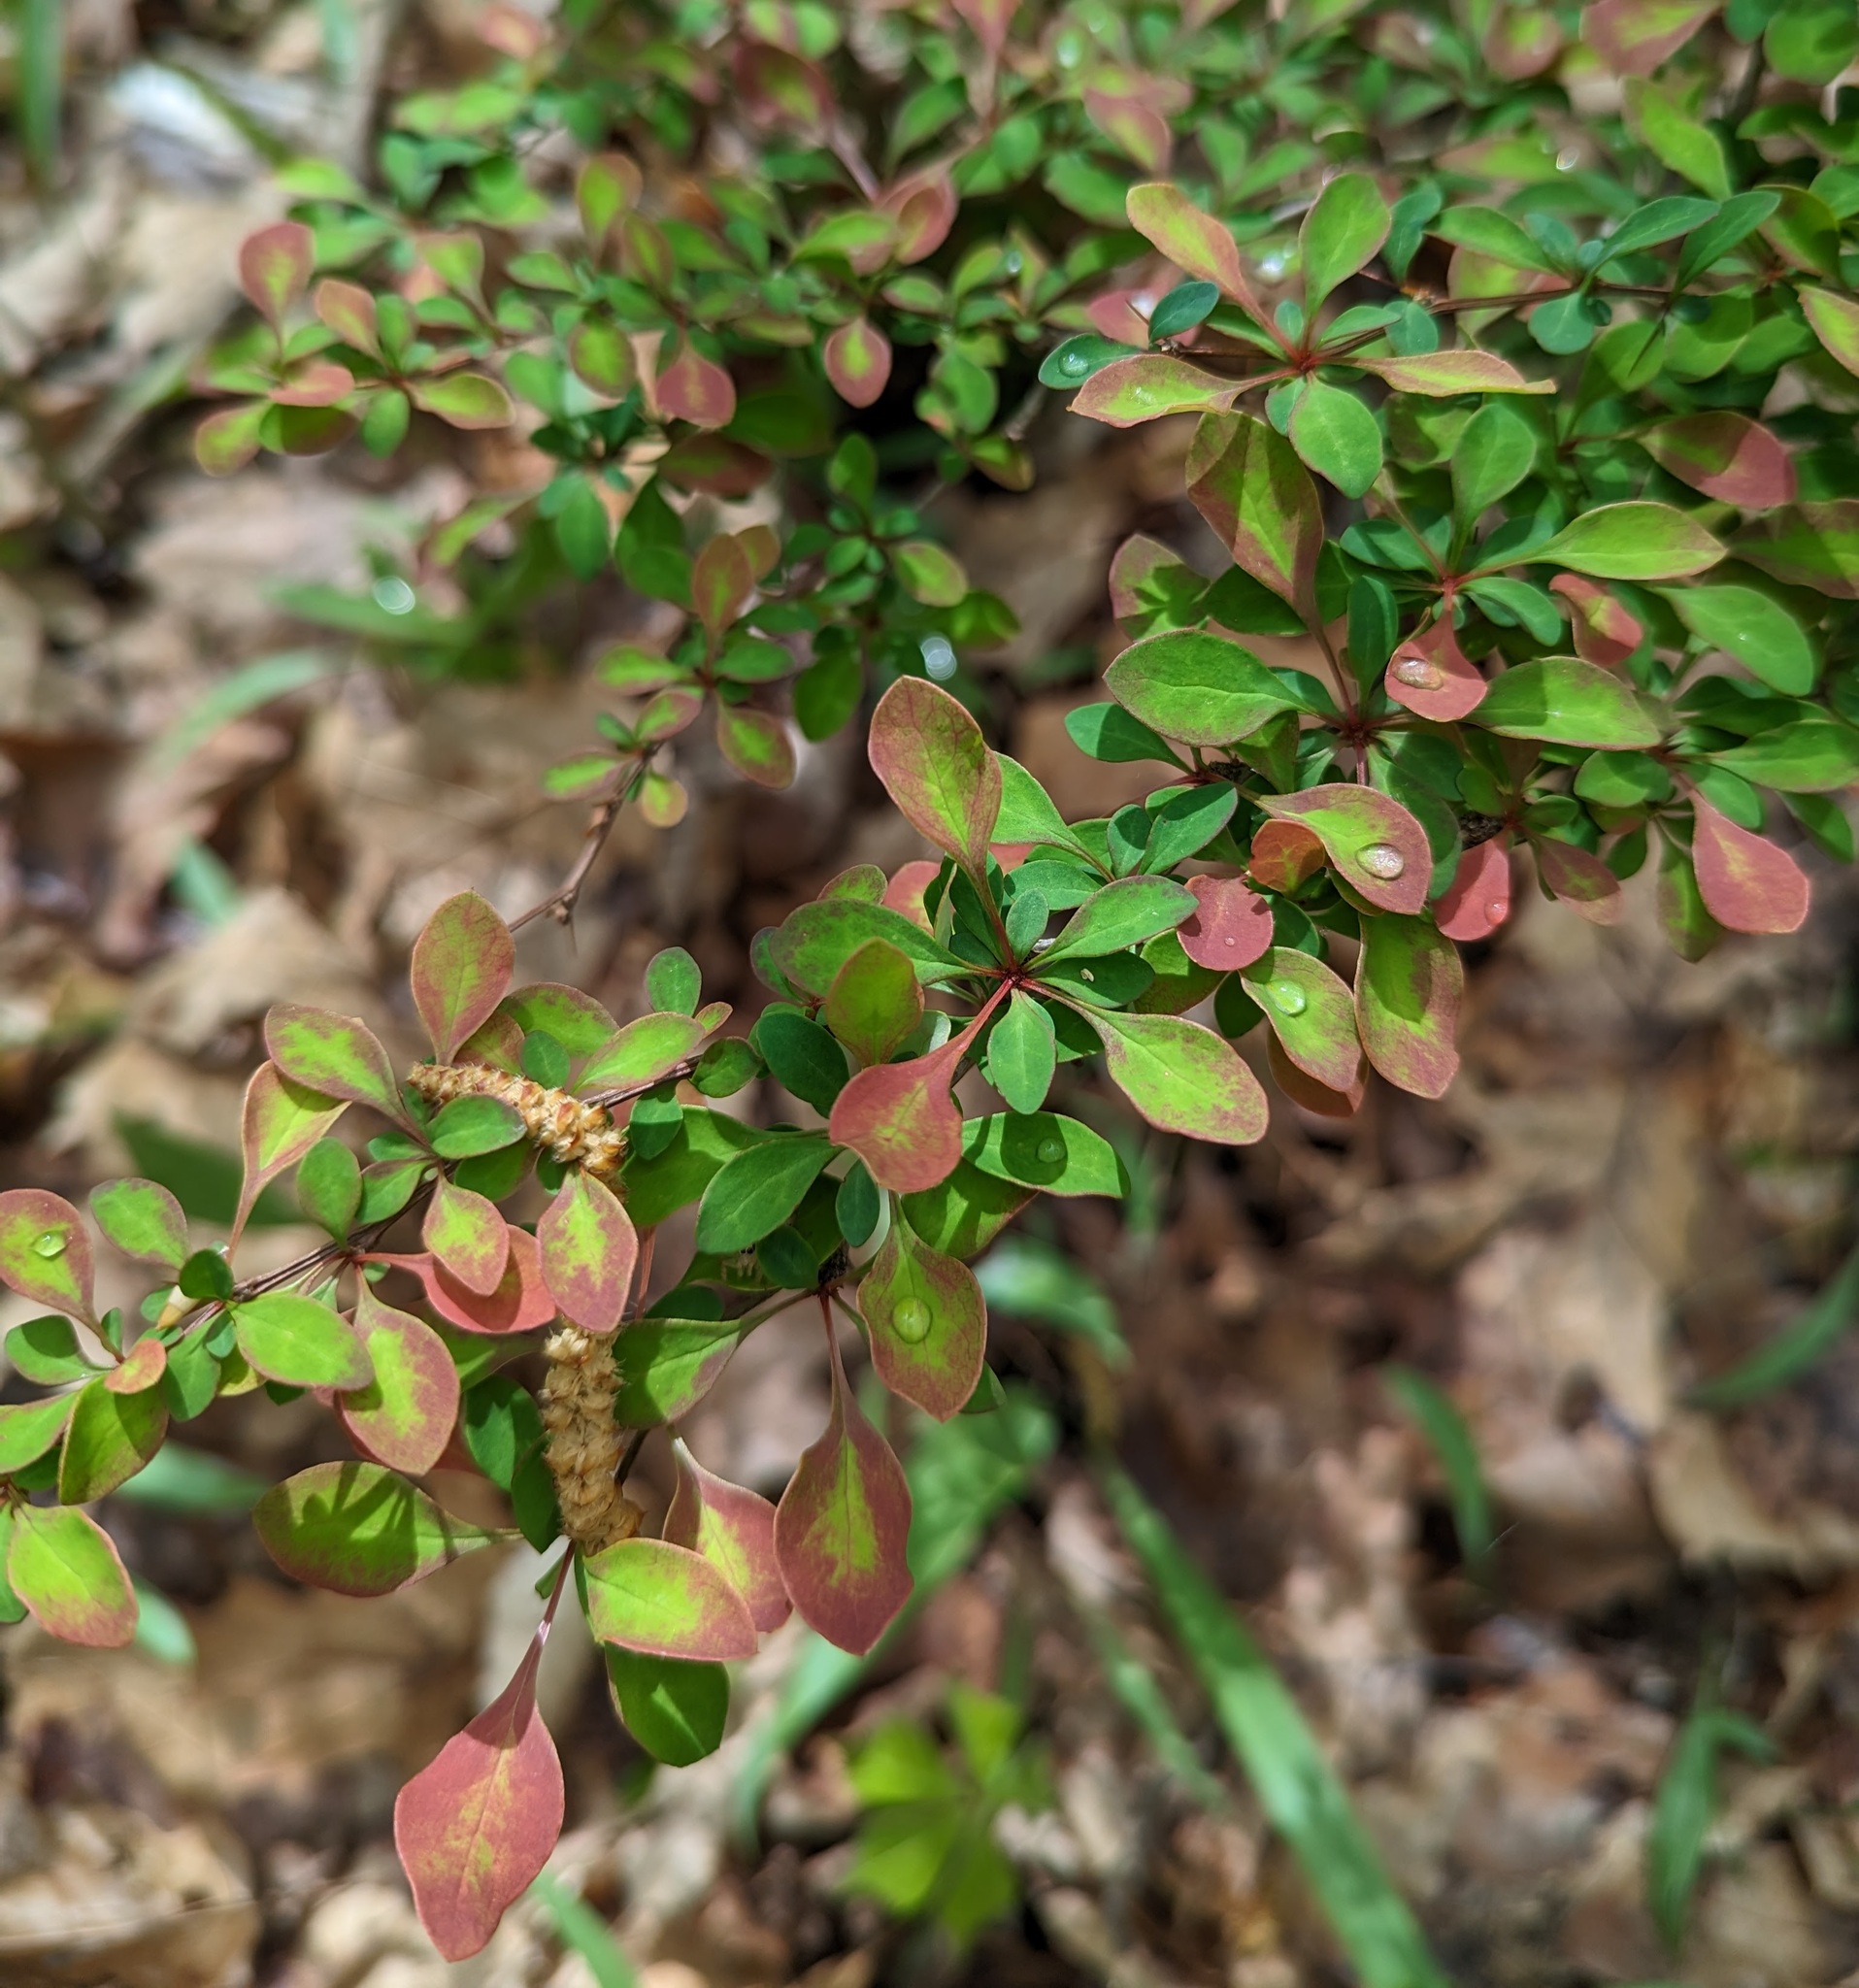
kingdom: Plantae
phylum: Tracheophyta
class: Magnoliopsida
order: Ranunculales
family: Berberidaceae
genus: Berberis
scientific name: Berberis thunbergii
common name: Japanese barberry
